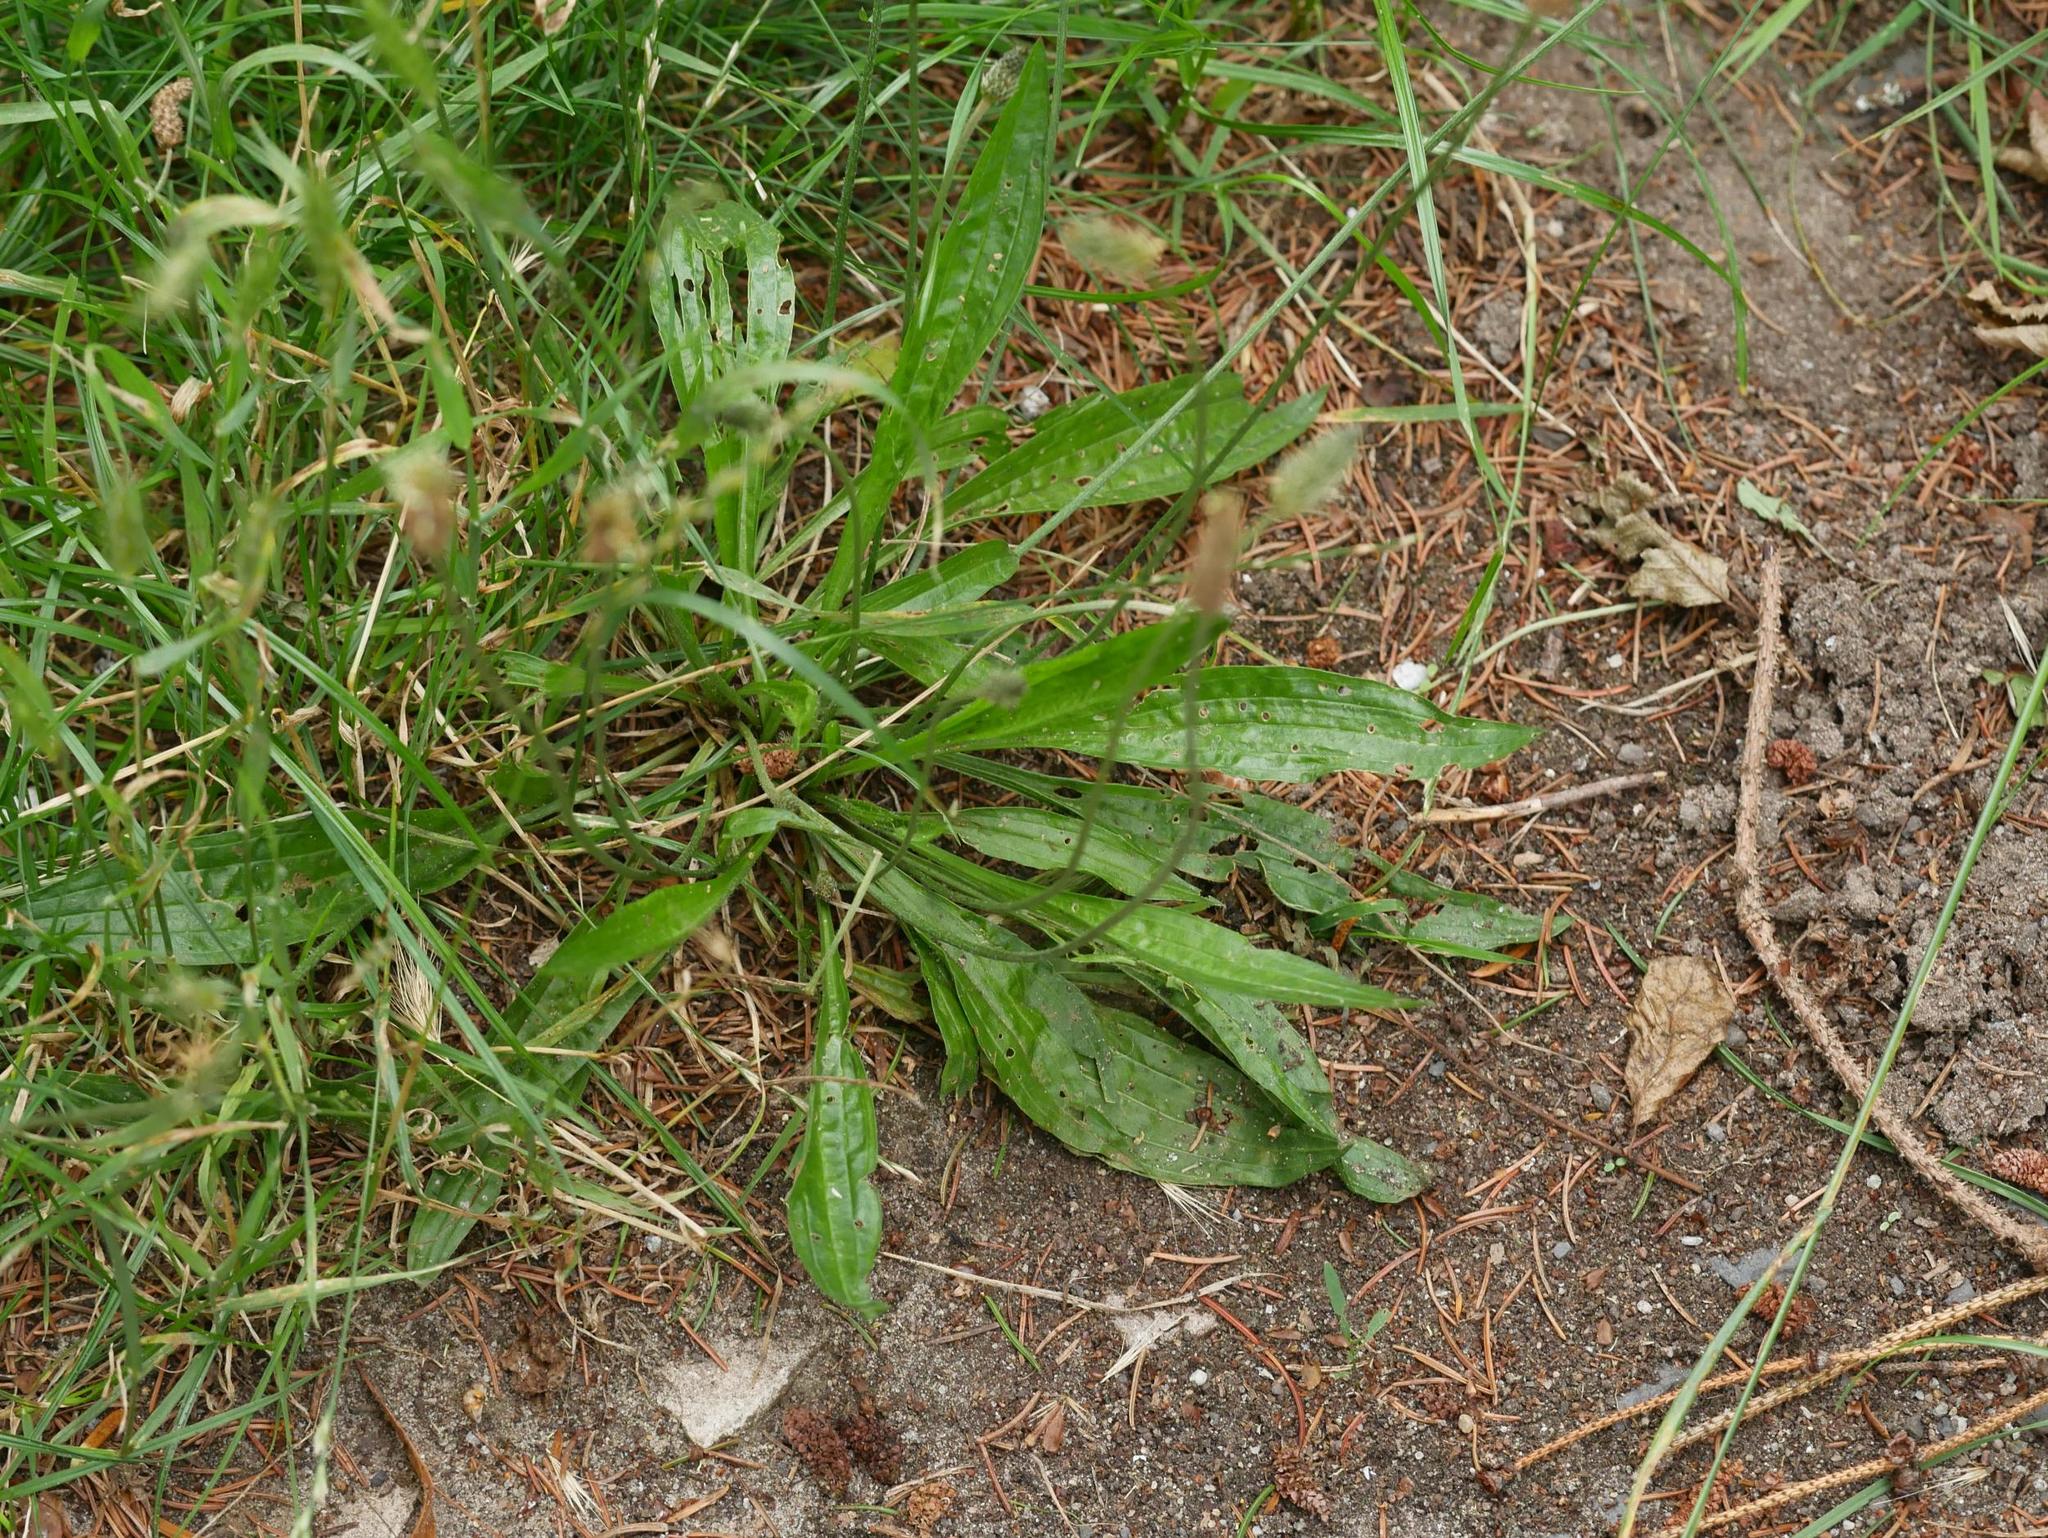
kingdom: Plantae
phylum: Tracheophyta
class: Magnoliopsida
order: Lamiales
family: Plantaginaceae
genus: Plantago
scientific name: Plantago lanceolata
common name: Ribwort plantain
